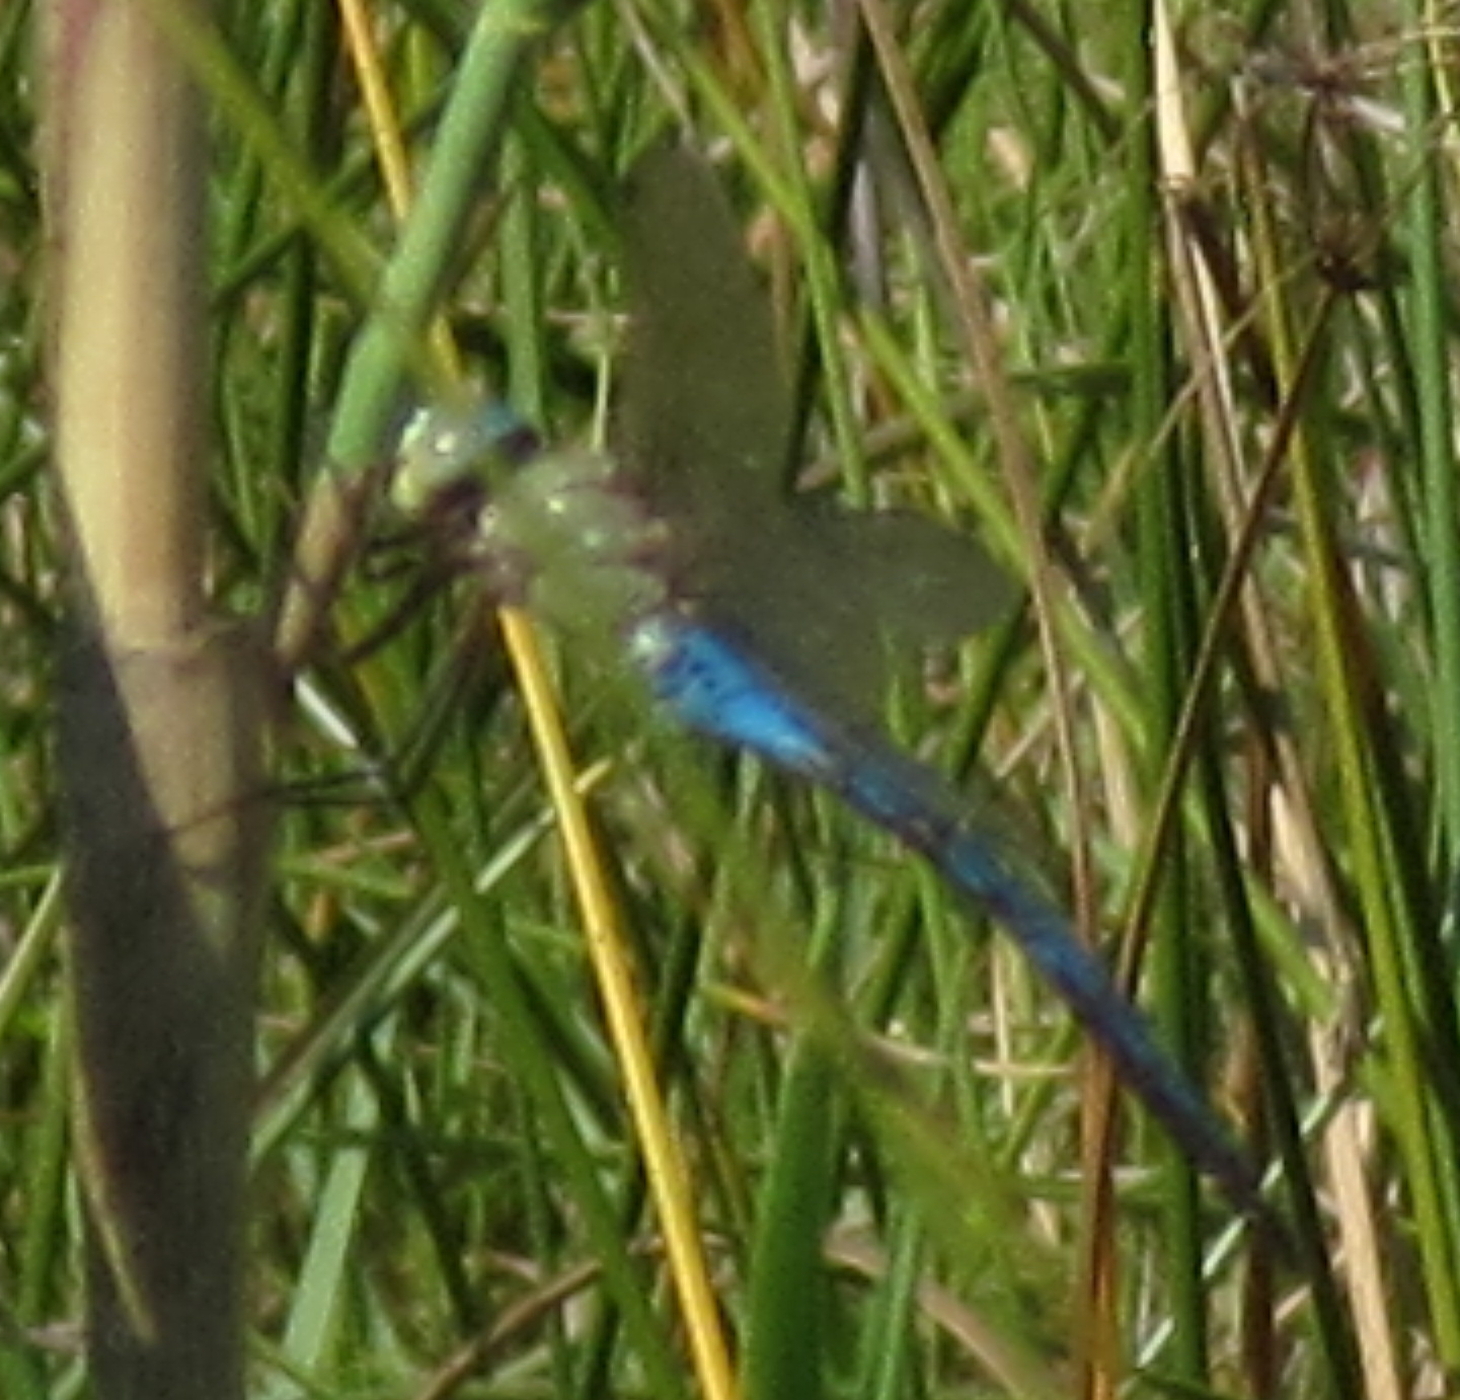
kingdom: Animalia
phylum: Arthropoda
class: Insecta
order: Odonata
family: Aeshnidae
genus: Anax
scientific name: Anax imperator
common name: Emperor dragonfly
